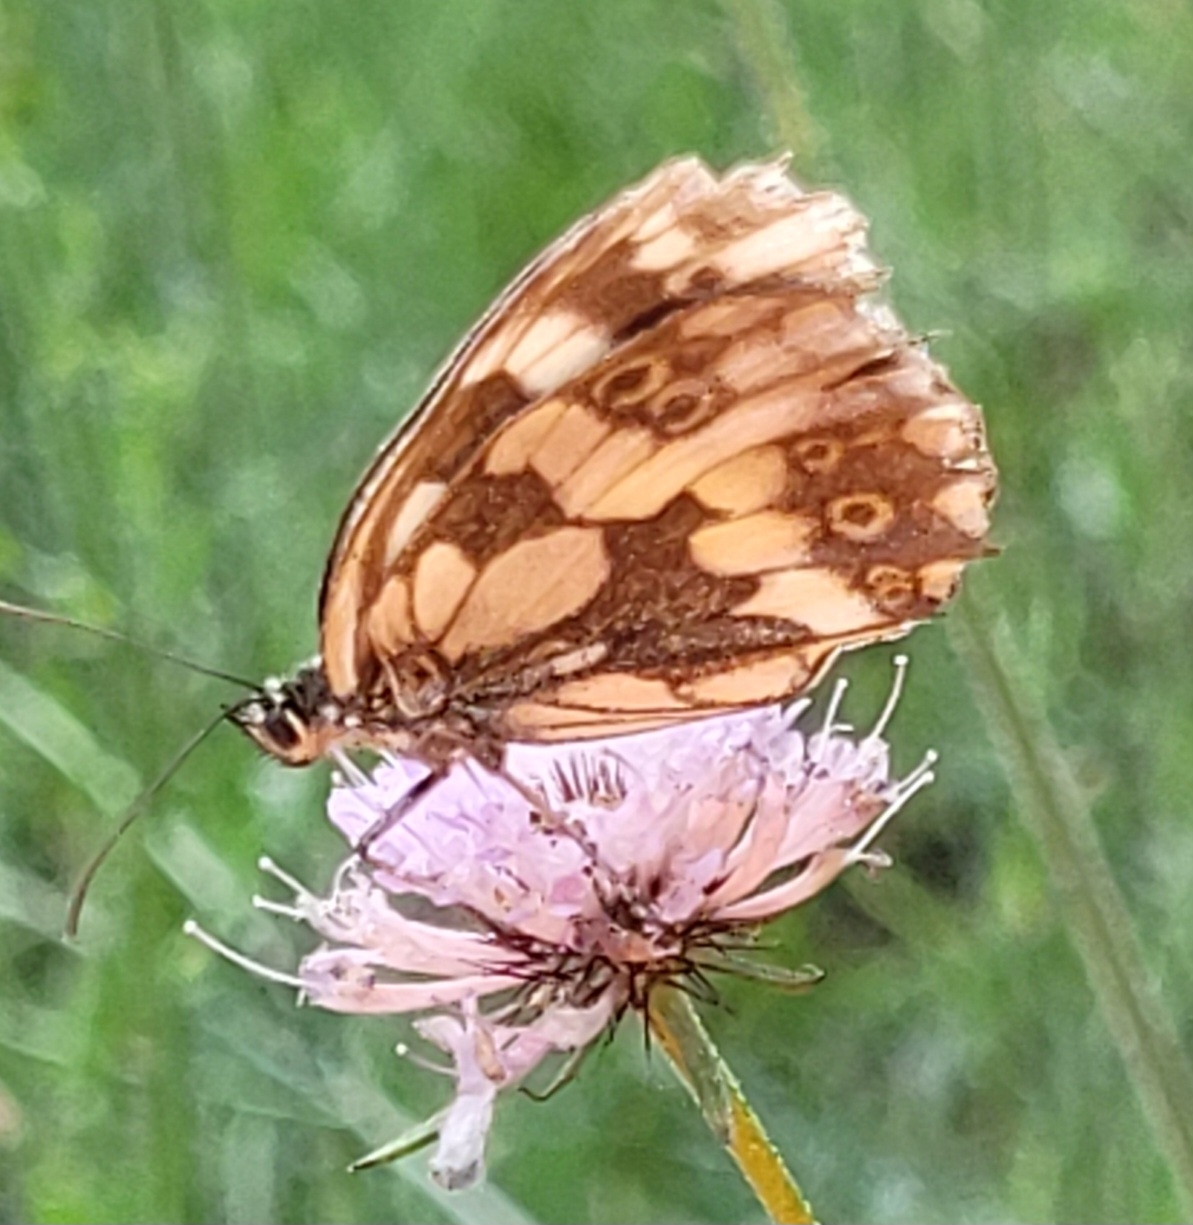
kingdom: Animalia
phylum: Arthropoda
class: Insecta
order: Lepidoptera
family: Nymphalidae
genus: Melanargia
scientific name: Melanargia galathea
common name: Marbled white
